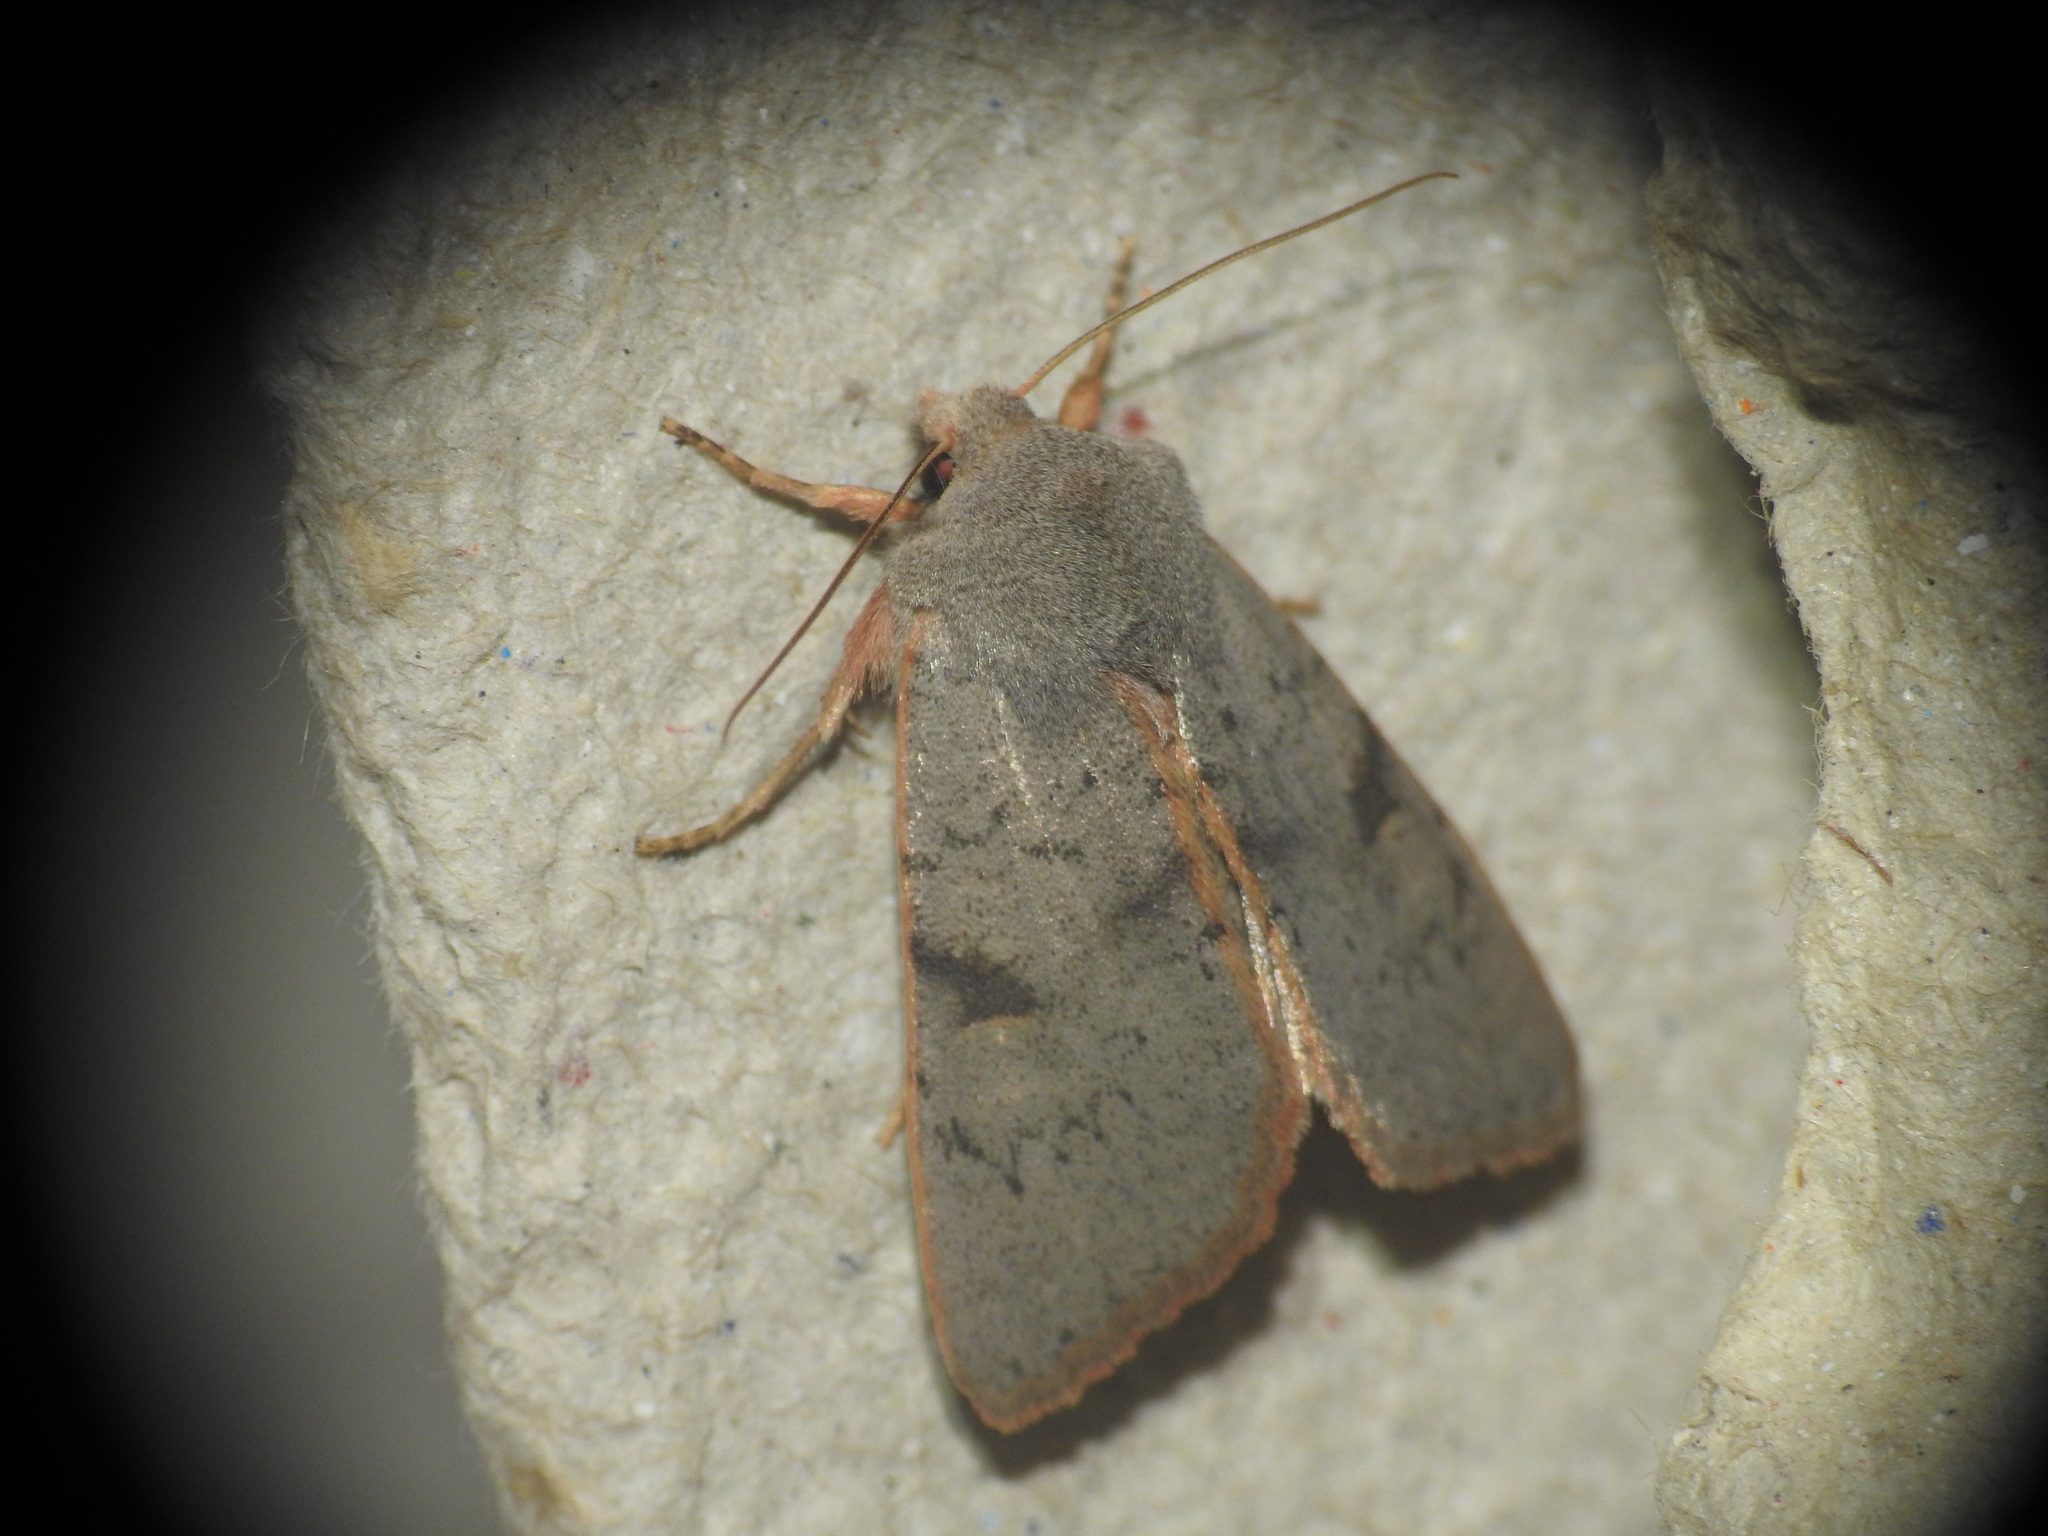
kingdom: Animalia
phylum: Arthropoda
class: Insecta
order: Lepidoptera
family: Noctuidae
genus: Ammopolia
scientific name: Ammopolia witzenmanni
